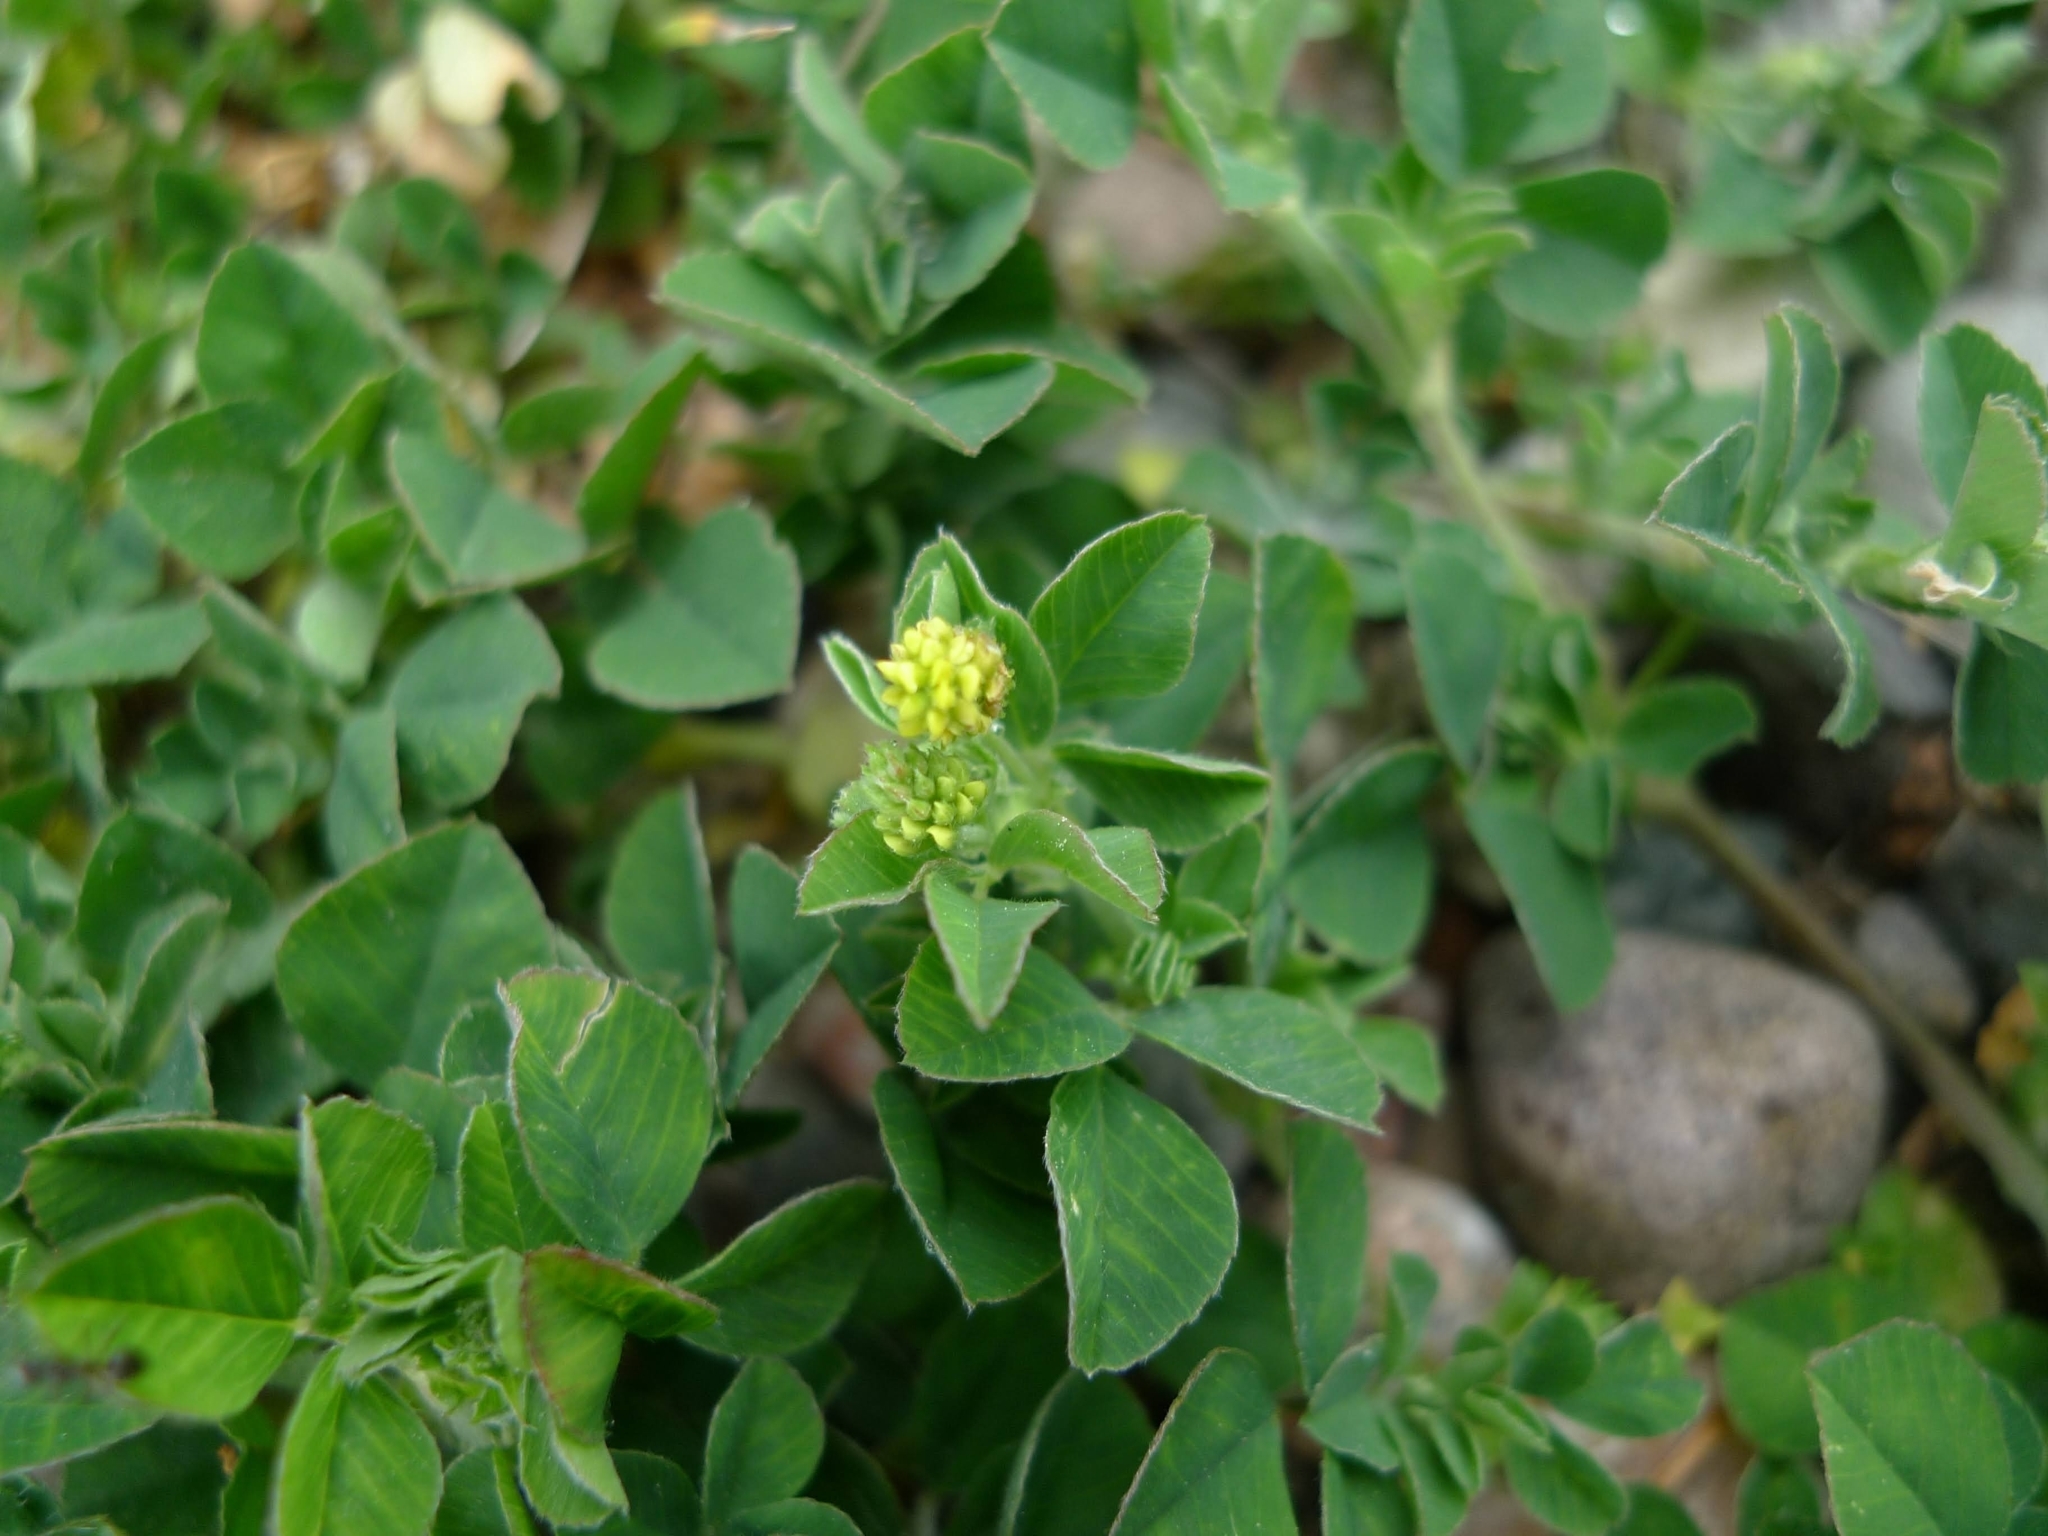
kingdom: Plantae
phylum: Tracheophyta
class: Magnoliopsida
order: Fabales
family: Fabaceae
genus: Medicago
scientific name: Medicago lupulina
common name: Black medick
